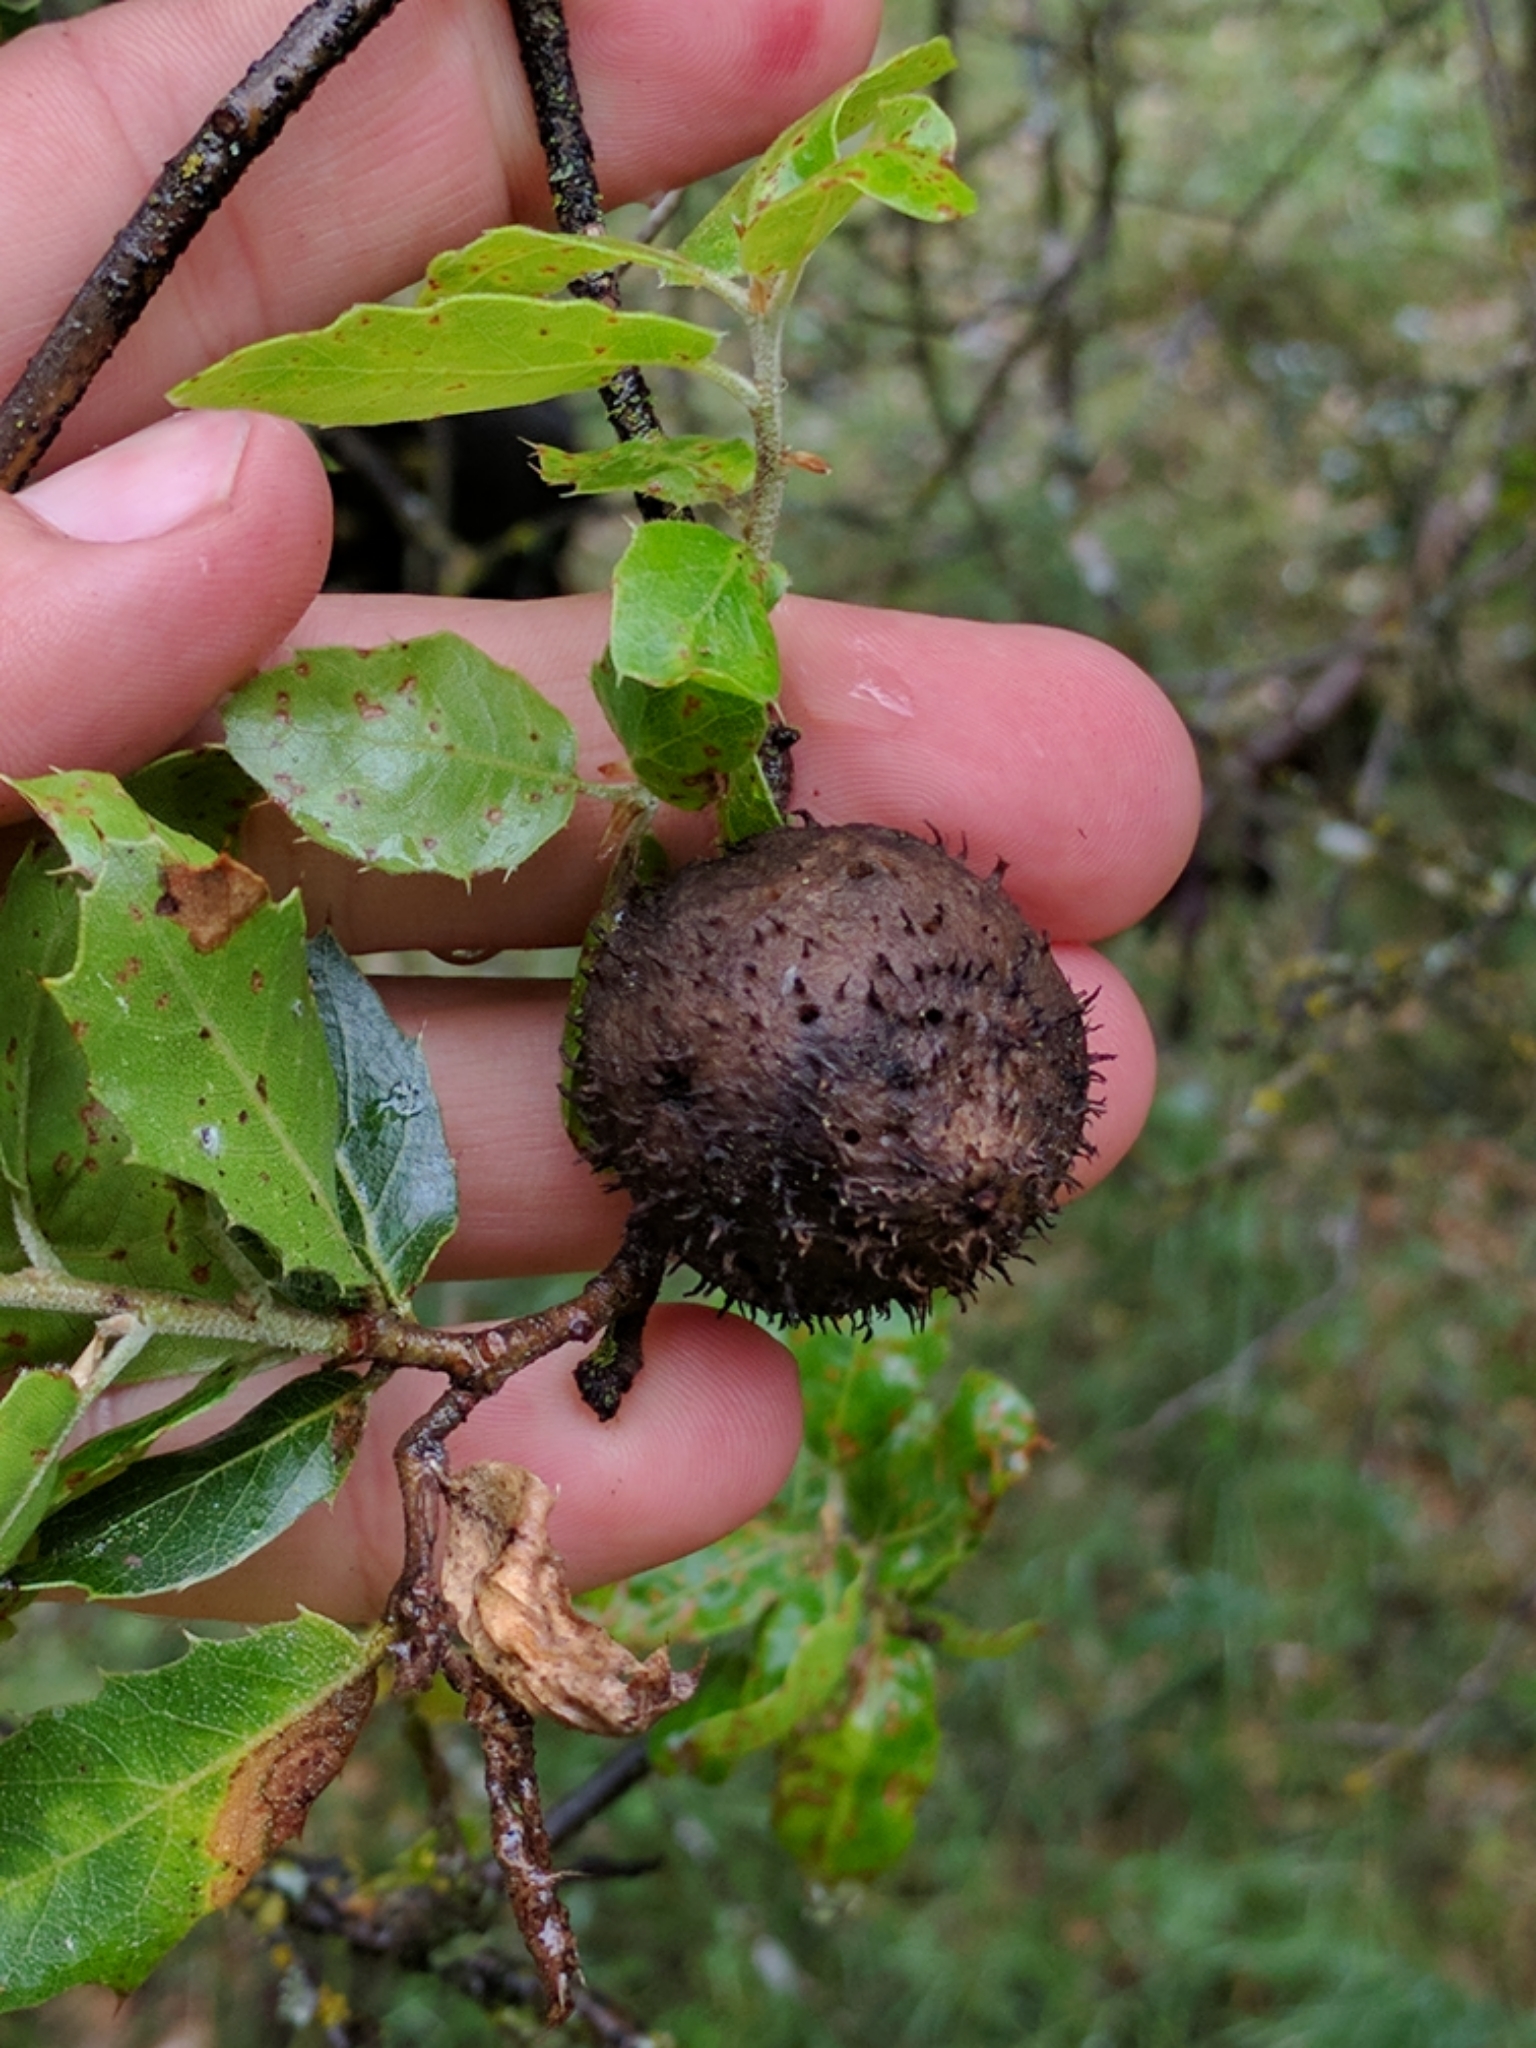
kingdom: Animalia
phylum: Arthropoda
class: Insecta
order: Hymenoptera
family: Cynipidae
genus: Amphibolips
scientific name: Amphibolips quercuspomiformis
